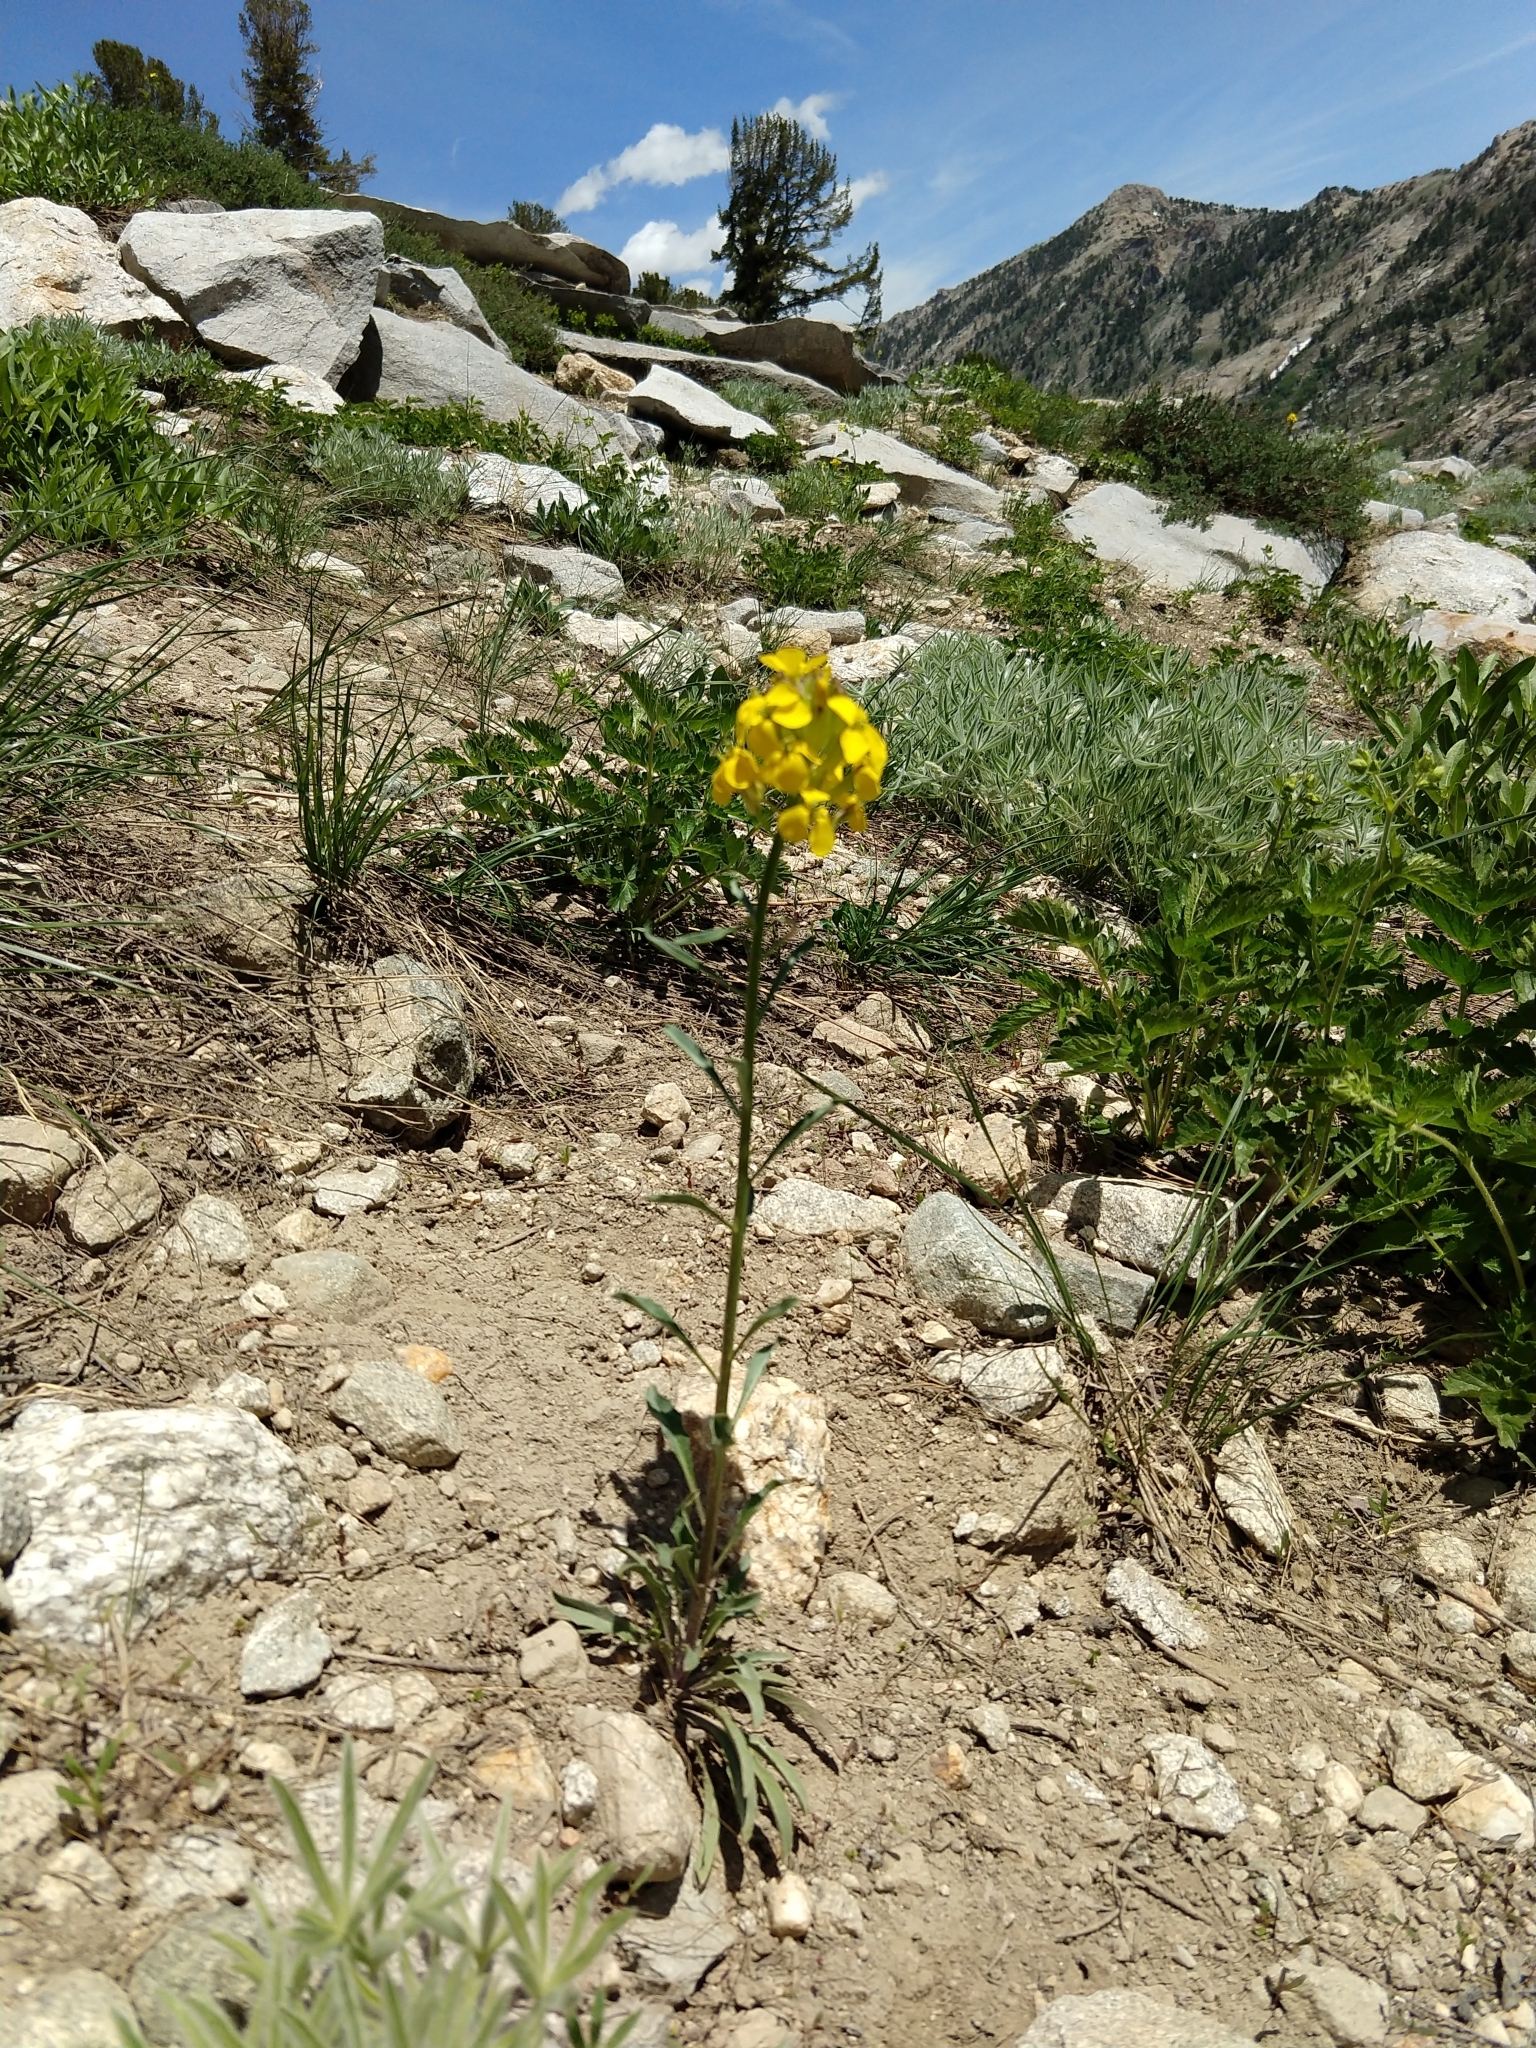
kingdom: Plantae
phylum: Tracheophyta
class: Magnoliopsida
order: Brassicales
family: Brassicaceae
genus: Erysimum
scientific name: Erysimum capitatum
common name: Western wallflower
